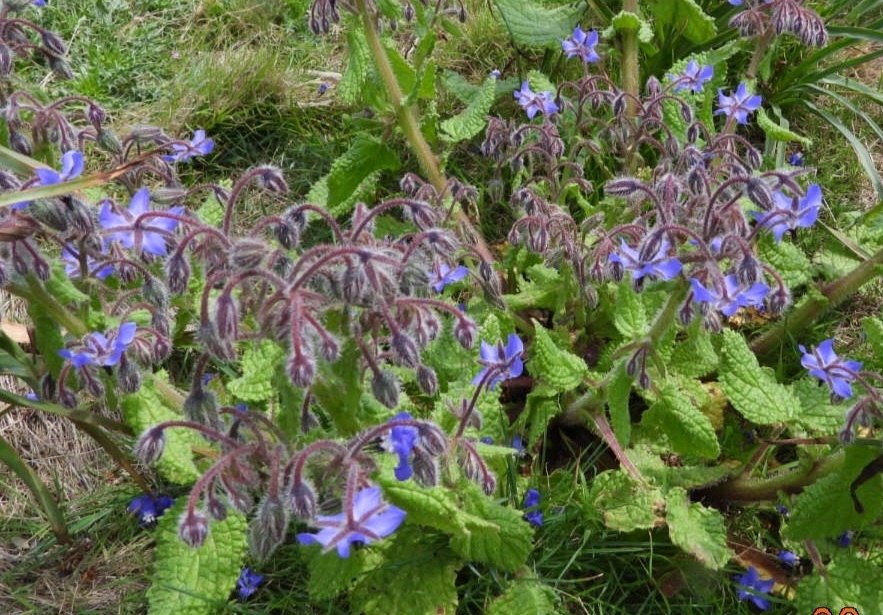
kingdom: Plantae
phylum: Tracheophyta
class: Magnoliopsida
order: Boraginales
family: Boraginaceae
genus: Borago
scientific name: Borago officinalis
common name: Borage
